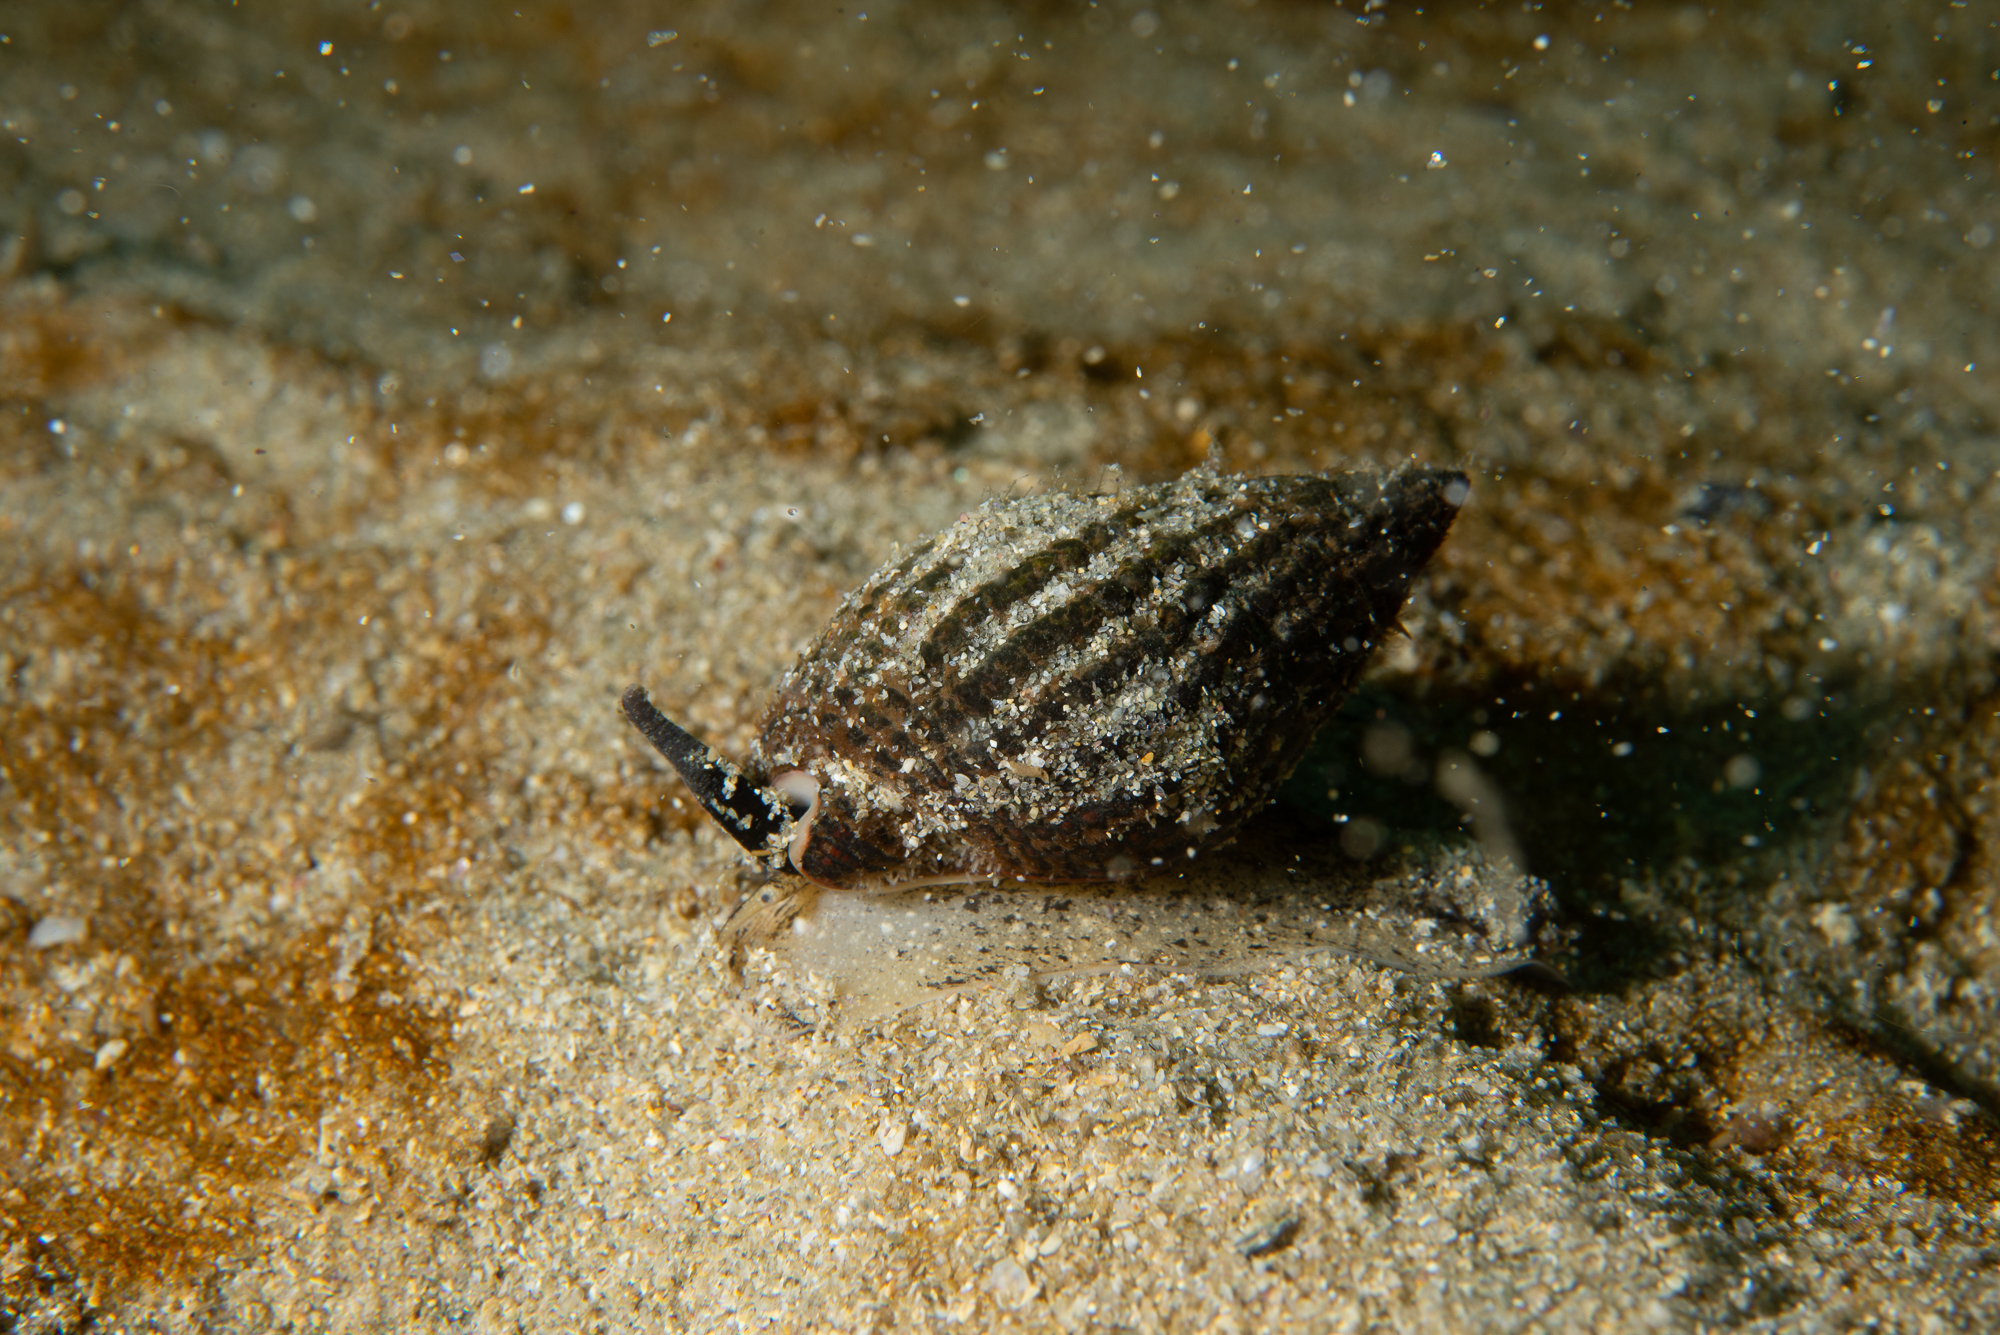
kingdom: Animalia
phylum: Mollusca
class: Gastropoda
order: Neogastropoda
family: Nassariidae
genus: Tritia
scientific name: Tritia reticulata
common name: Netted dog whelk
